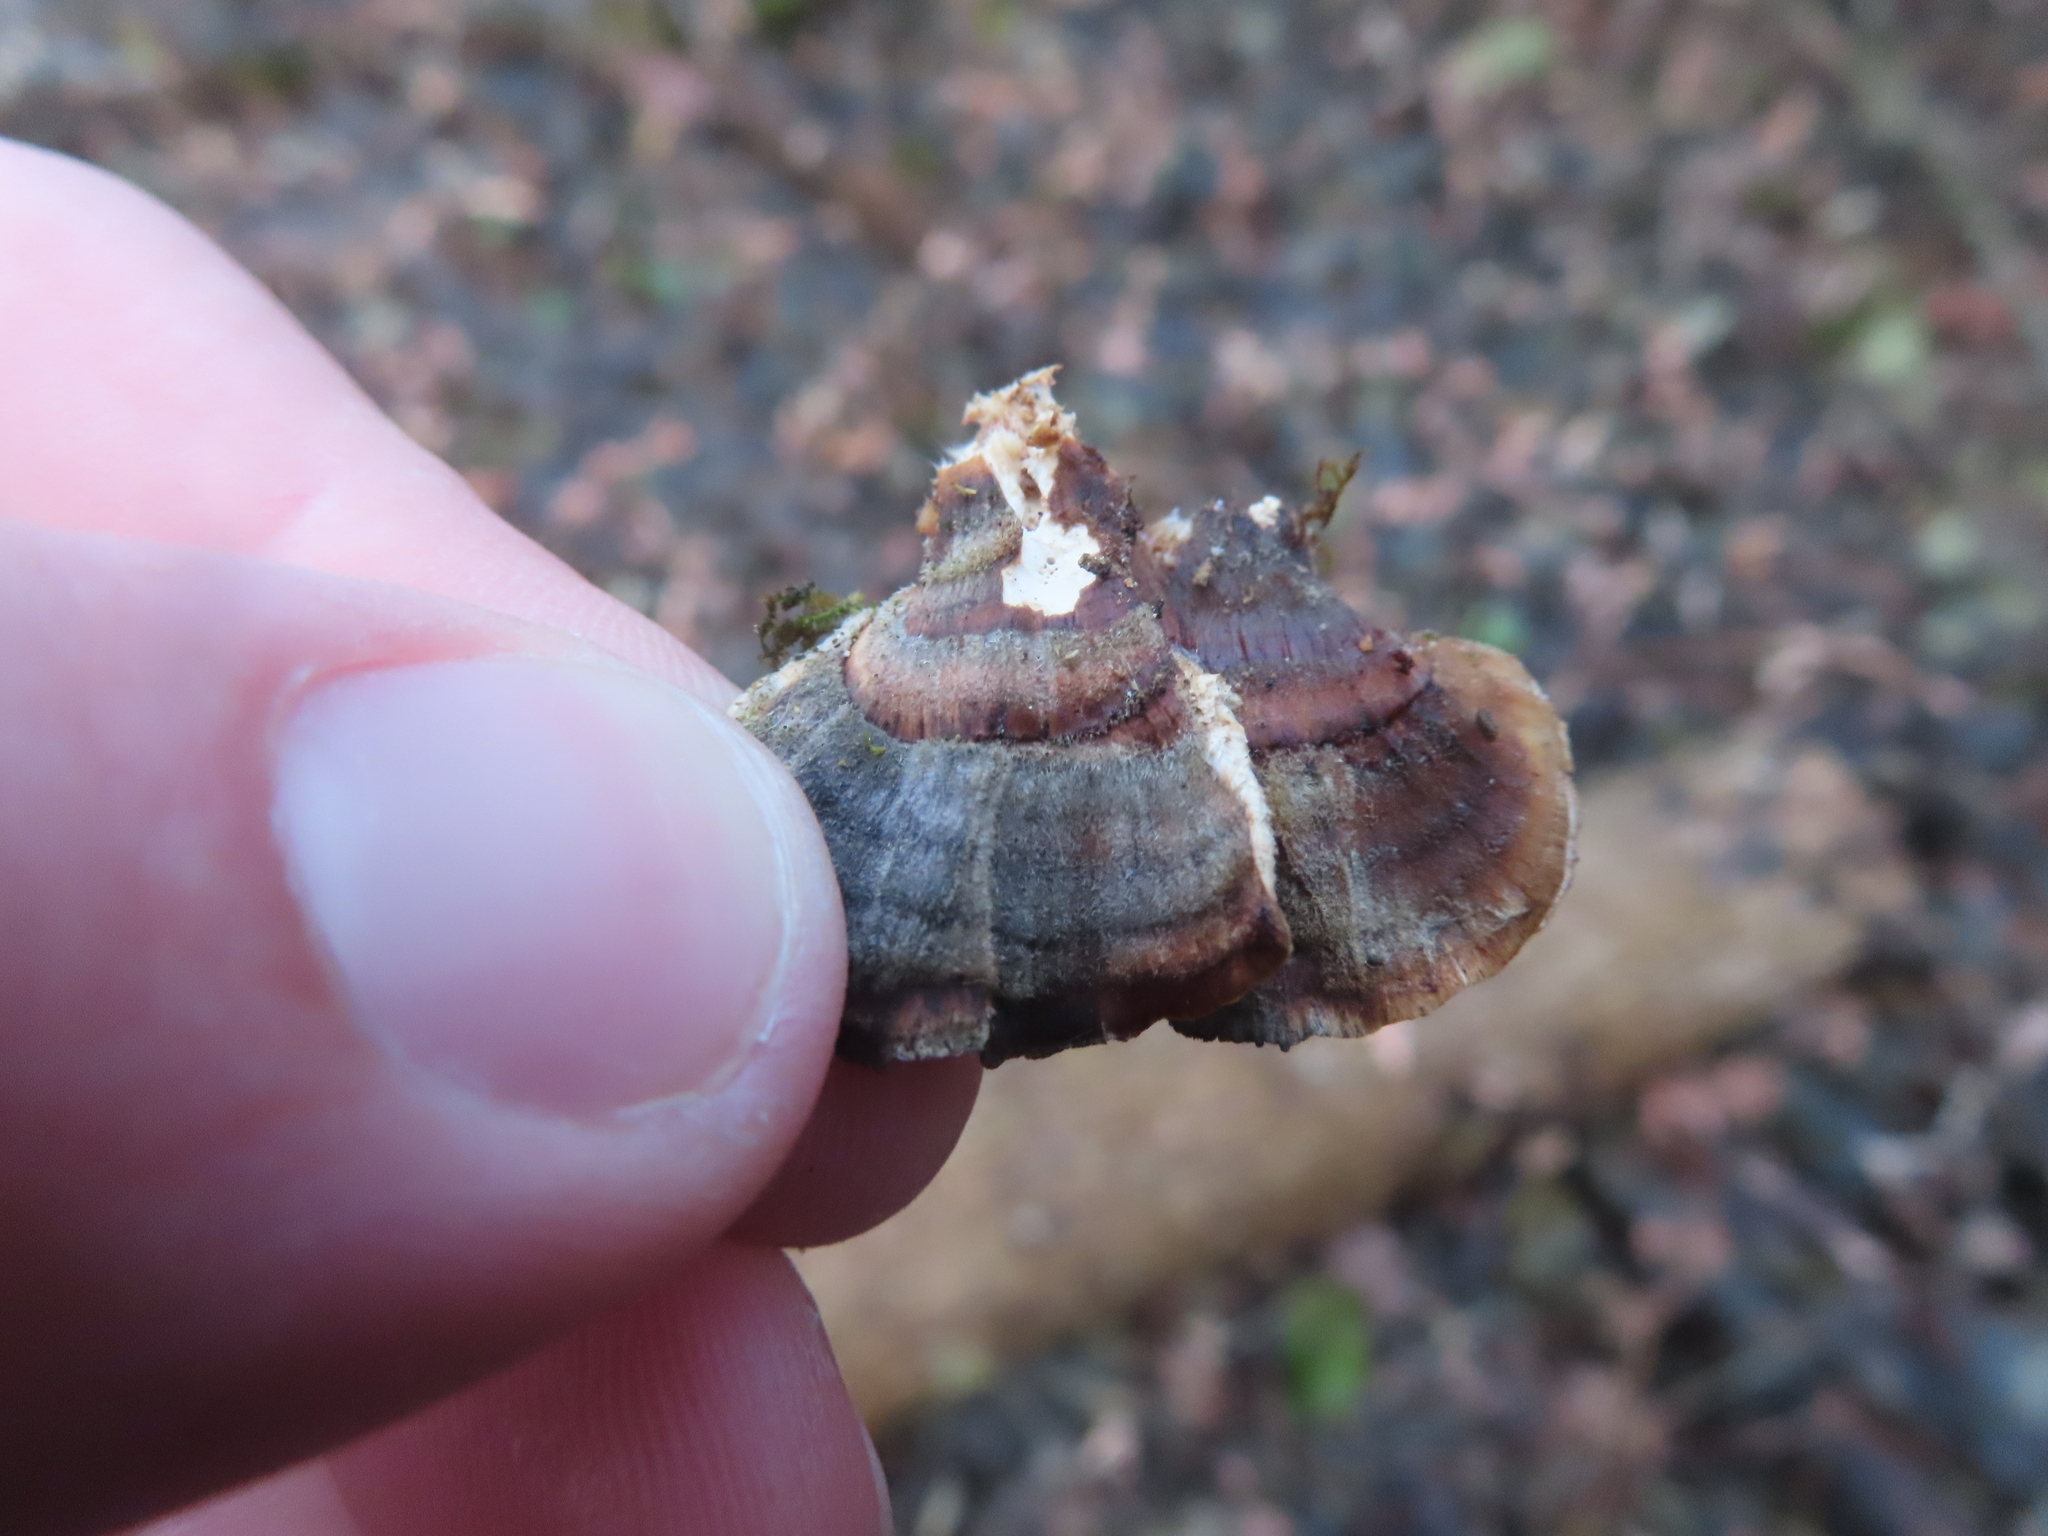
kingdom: Fungi
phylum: Basidiomycota
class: Agaricomycetes
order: Polyporales
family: Polyporaceae
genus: Trametes
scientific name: Trametes versicolor
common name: Turkeytail
